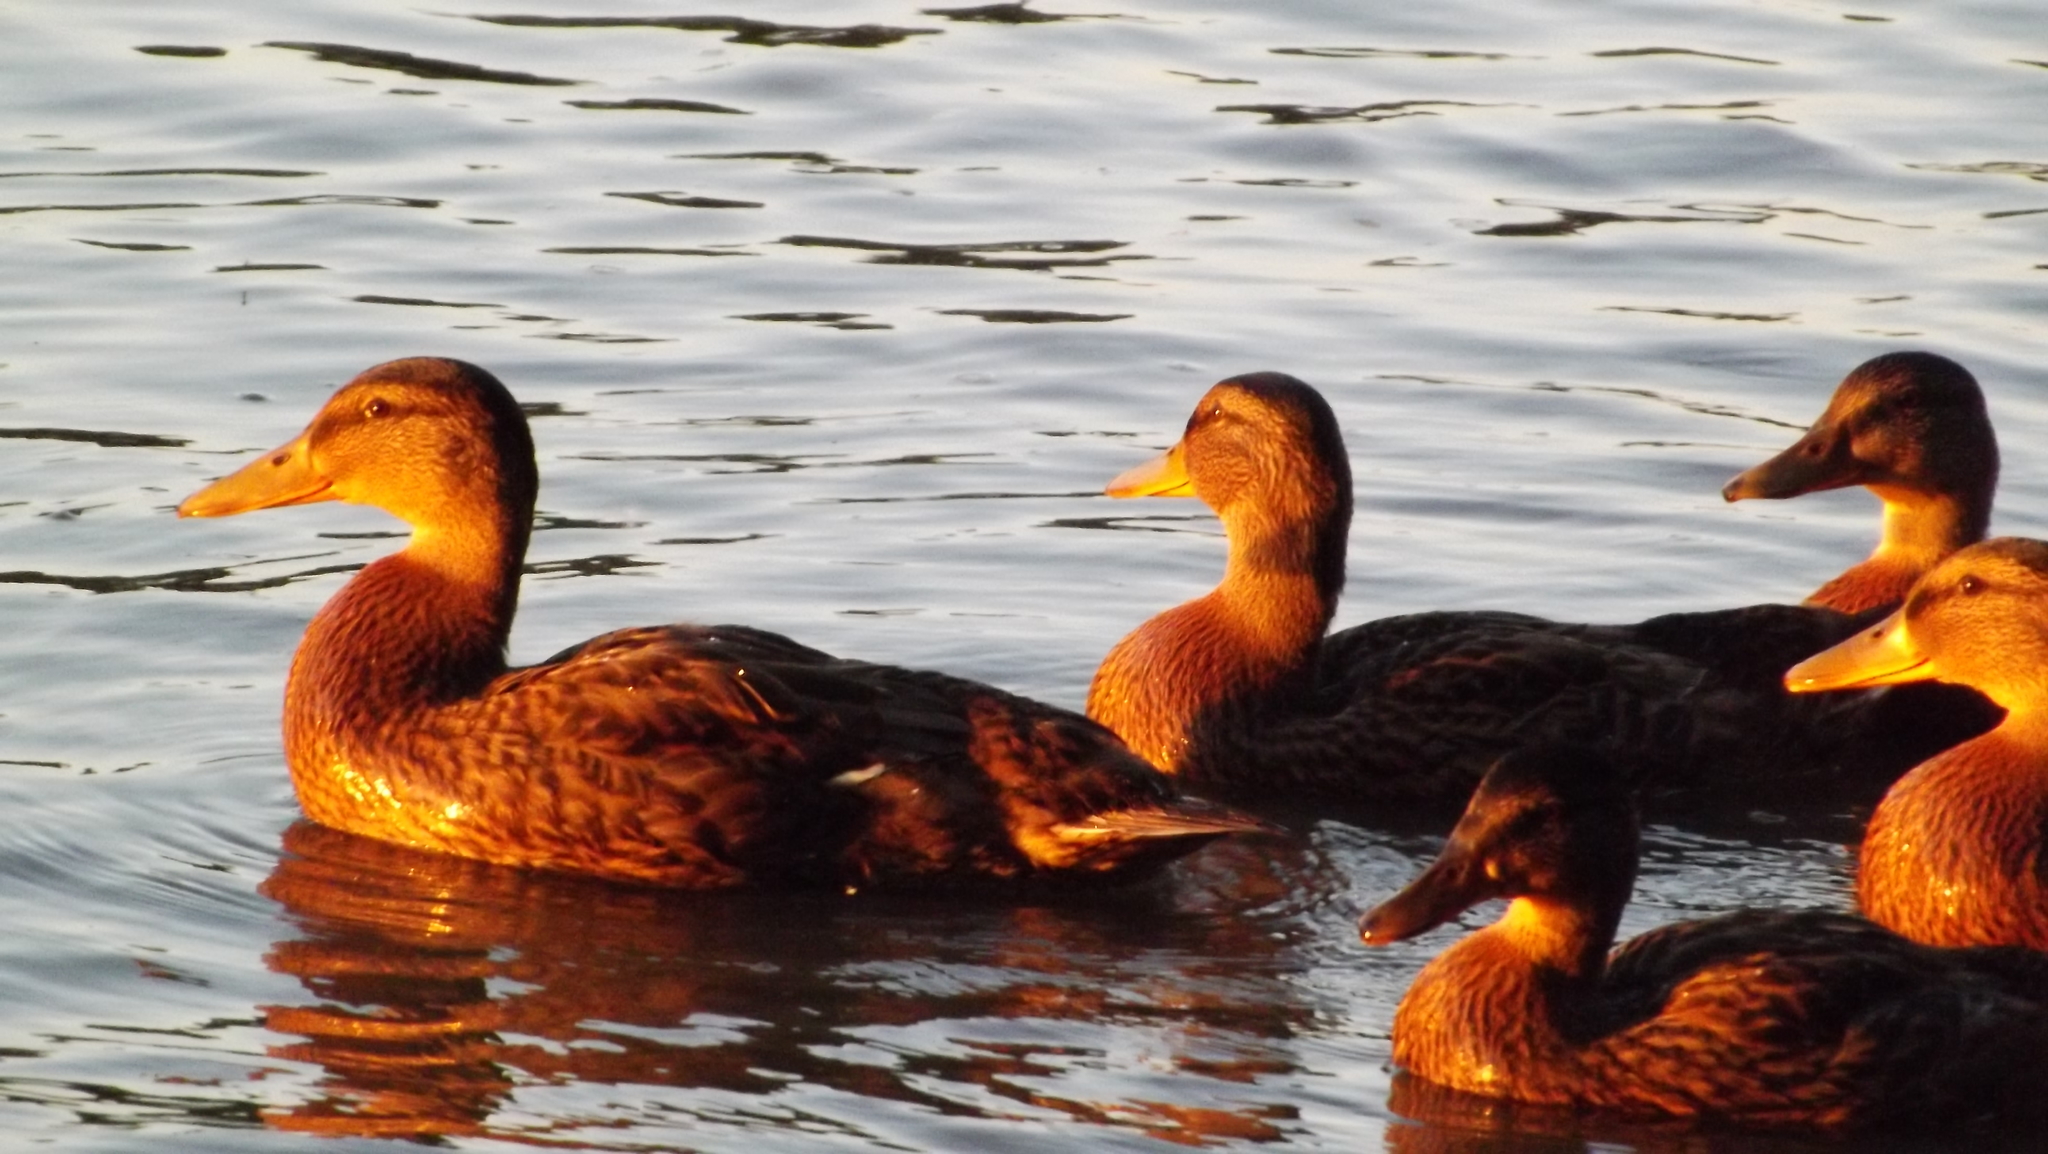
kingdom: Animalia
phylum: Chordata
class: Aves
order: Anseriformes
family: Anatidae
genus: Anas
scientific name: Anas platyrhynchos
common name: Mallard
